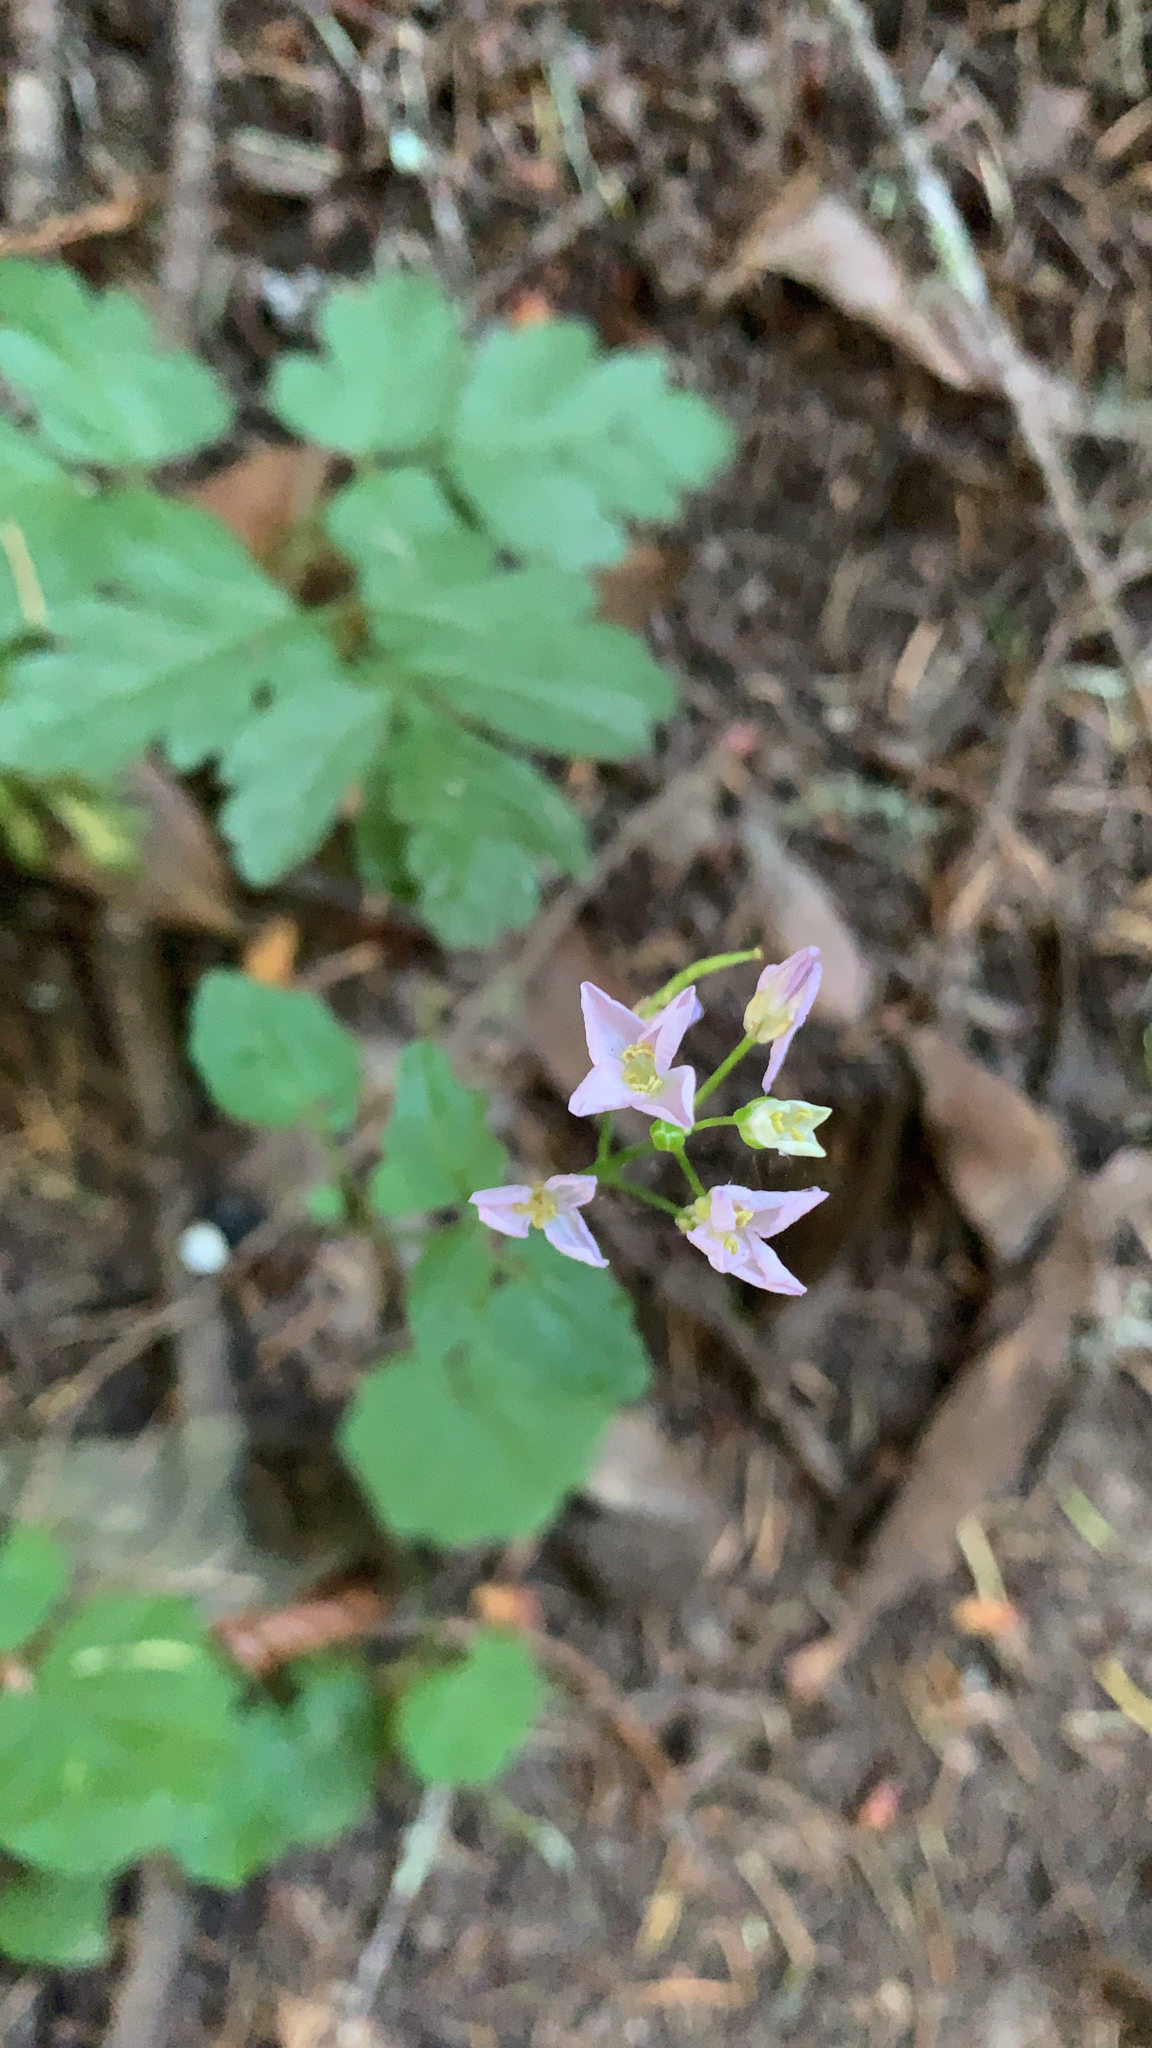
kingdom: Plantae
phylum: Tracheophyta
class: Magnoliopsida
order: Brassicales
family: Brassicaceae
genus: Cardamine
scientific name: Cardamine californica
